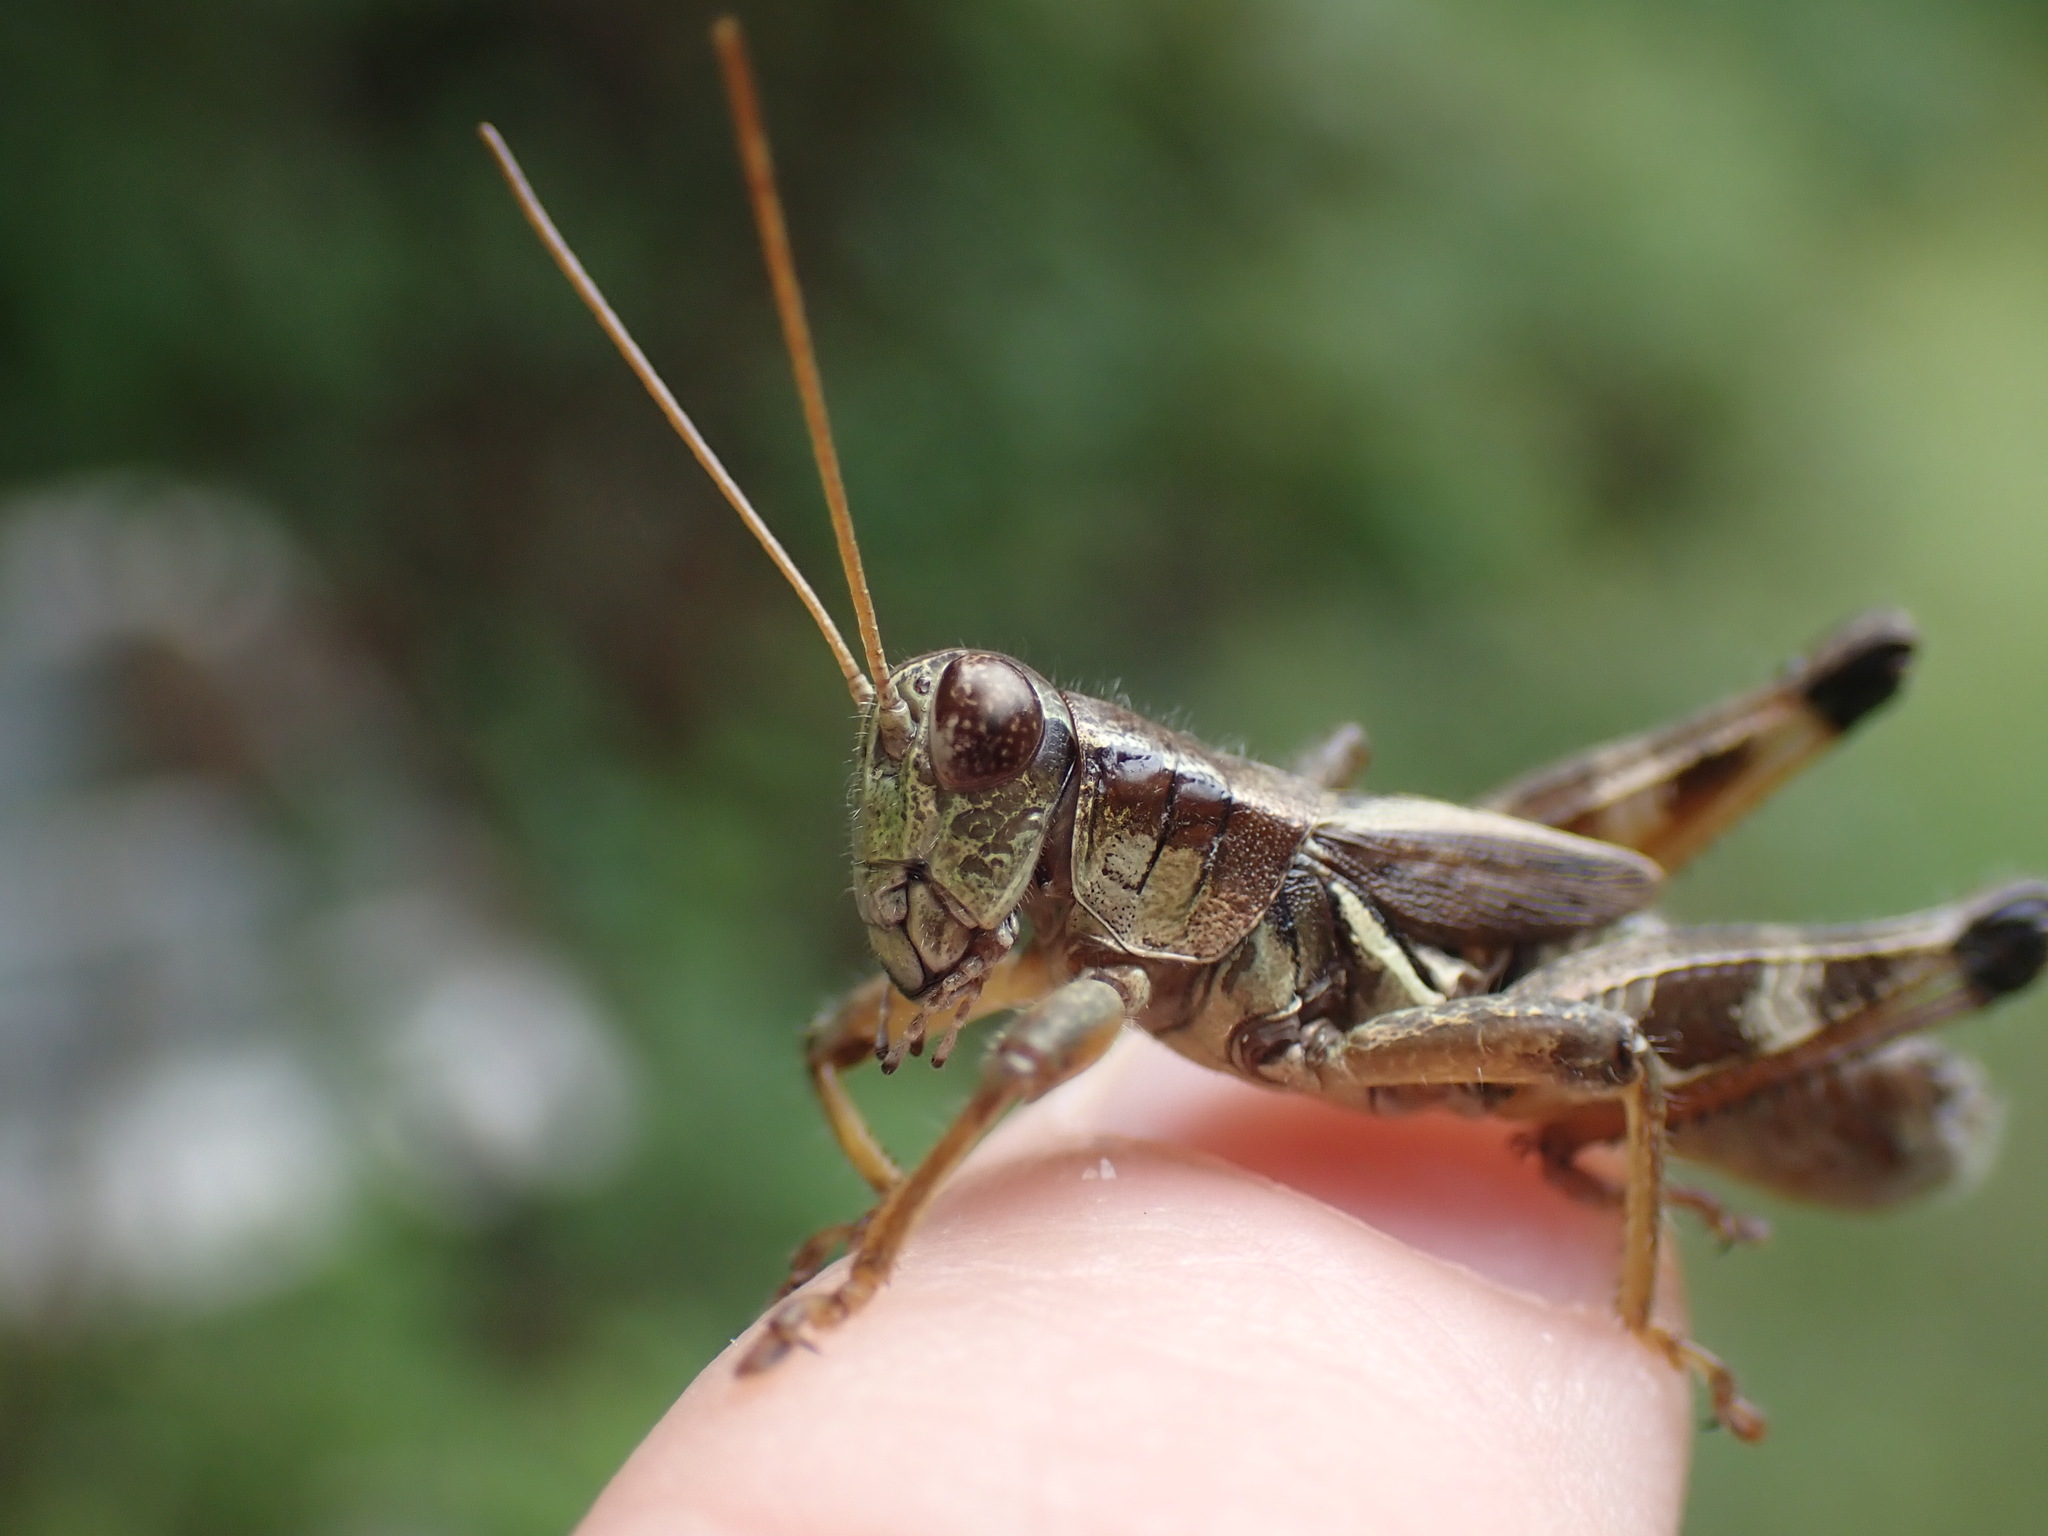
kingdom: Animalia
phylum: Arthropoda
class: Insecta
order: Orthoptera
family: Acrididae
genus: Melanoplus
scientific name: Melanoplus walshii
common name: Walsh's locust
